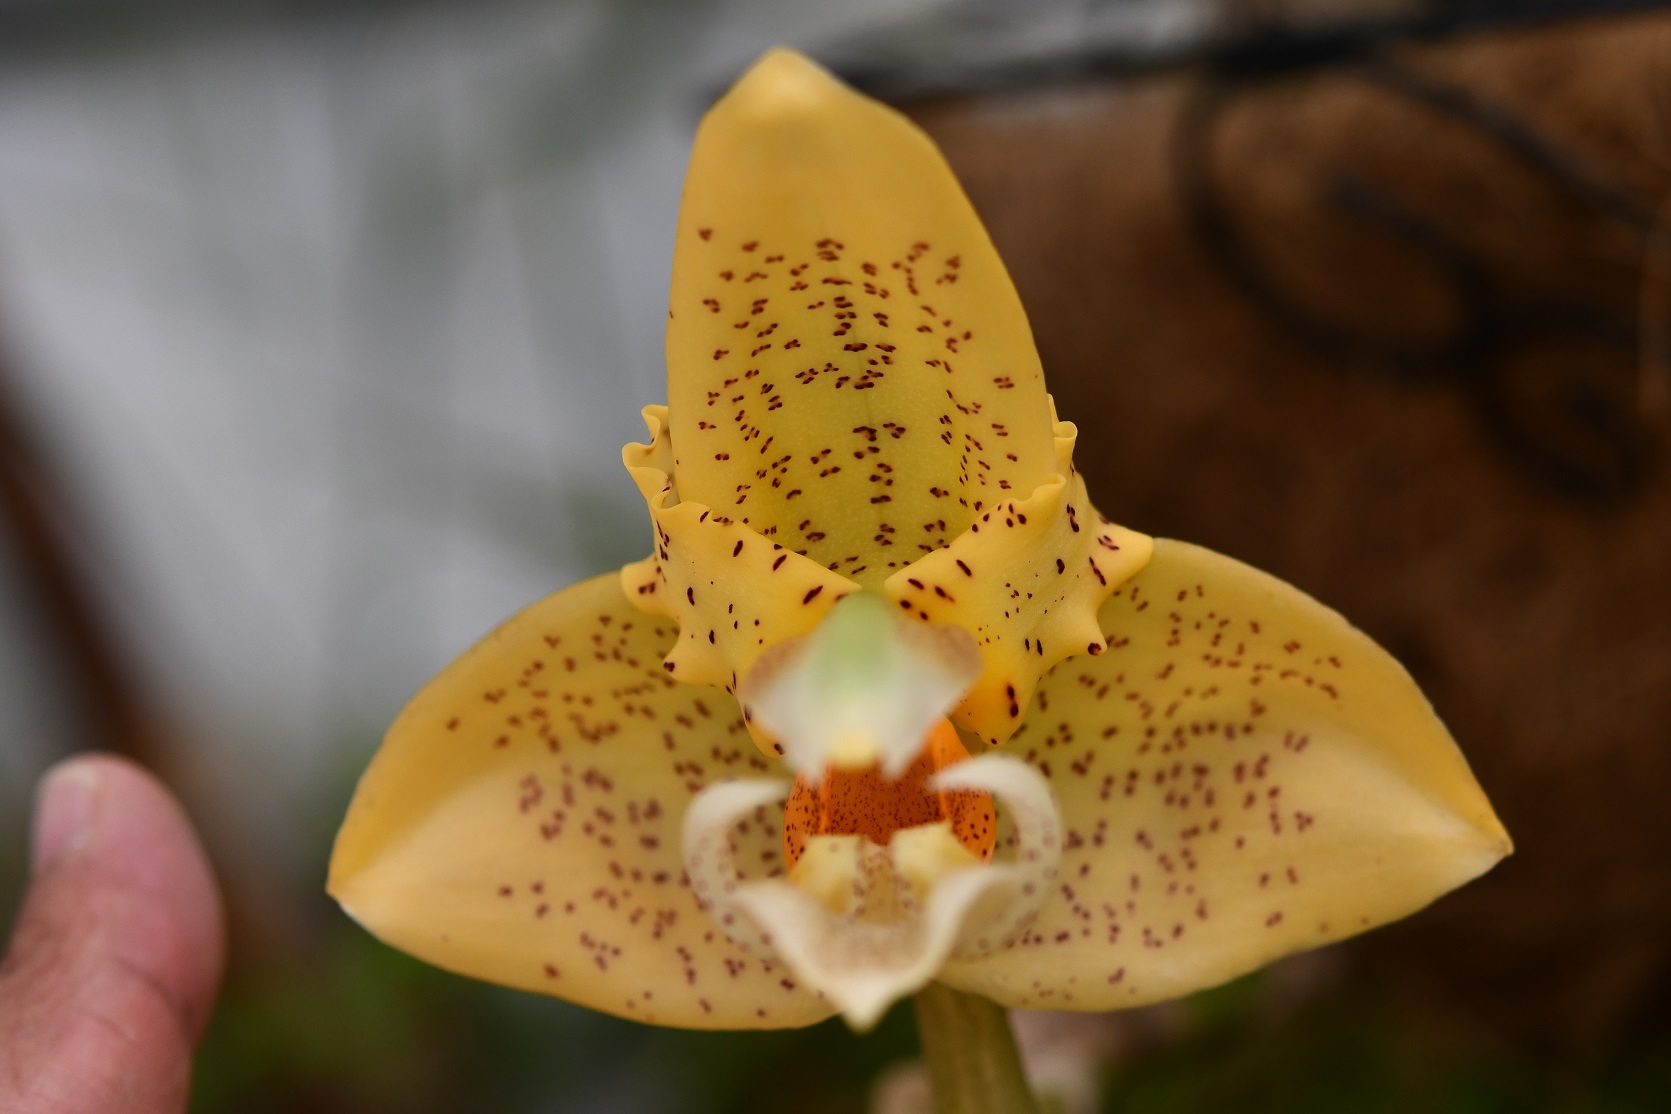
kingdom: Plantae
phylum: Tracheophyta
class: Liliopsida
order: Asparagales
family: Orchidaceae
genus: Stanhopea
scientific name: Stanhopea graveolens
